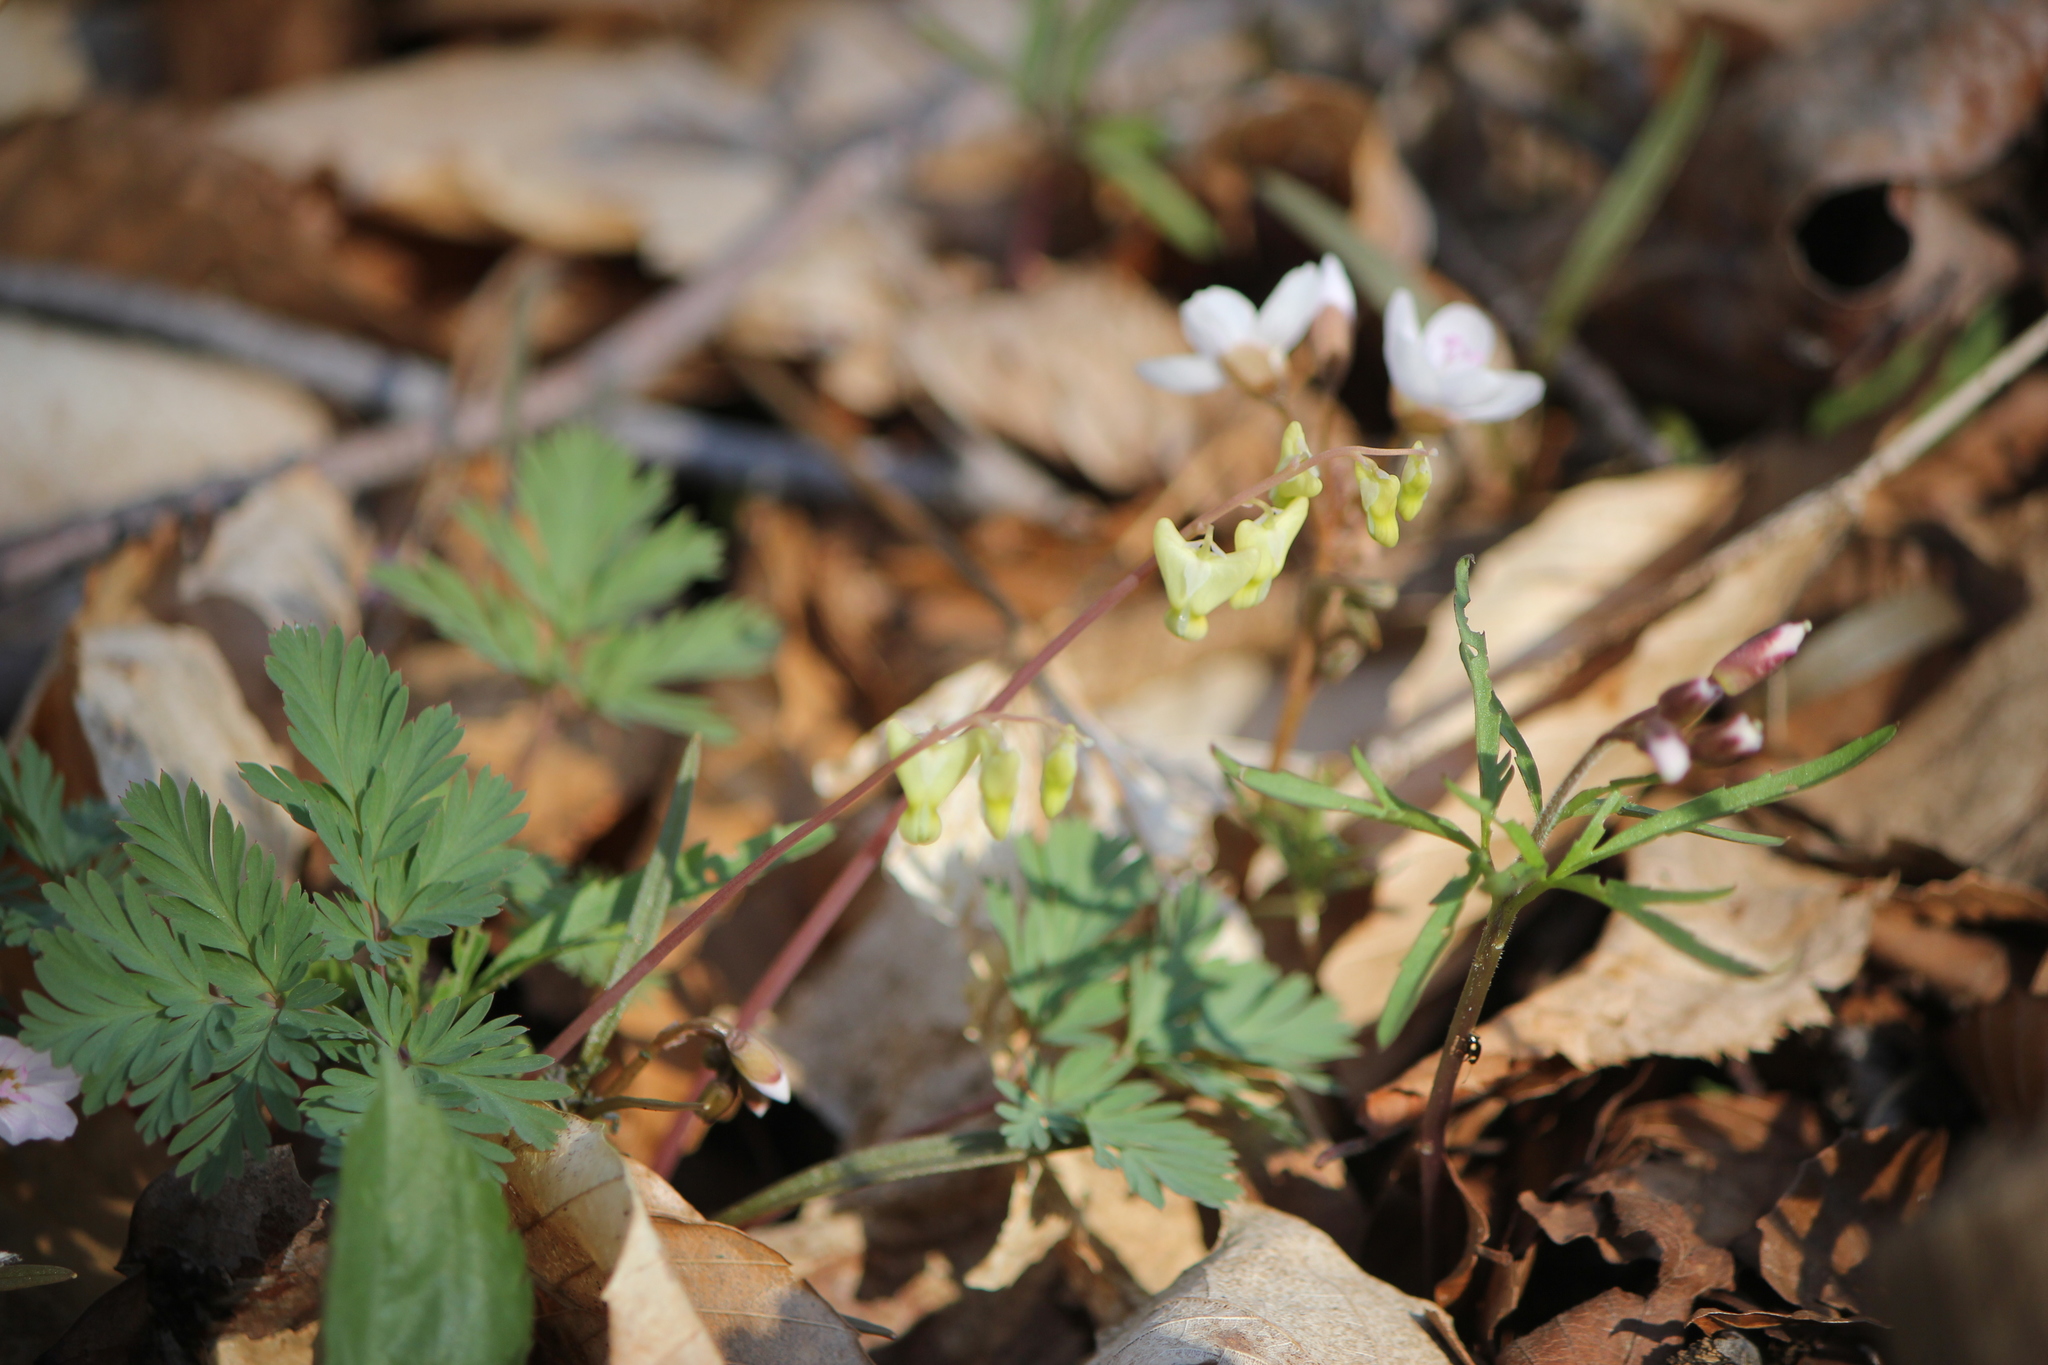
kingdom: Plantae
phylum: Tracheophyta
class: Magnoliopsida
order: Ranunculales
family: Papaveraceae
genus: Dicentra
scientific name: Dicentra cucullaria
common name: Dutchman's breeches
